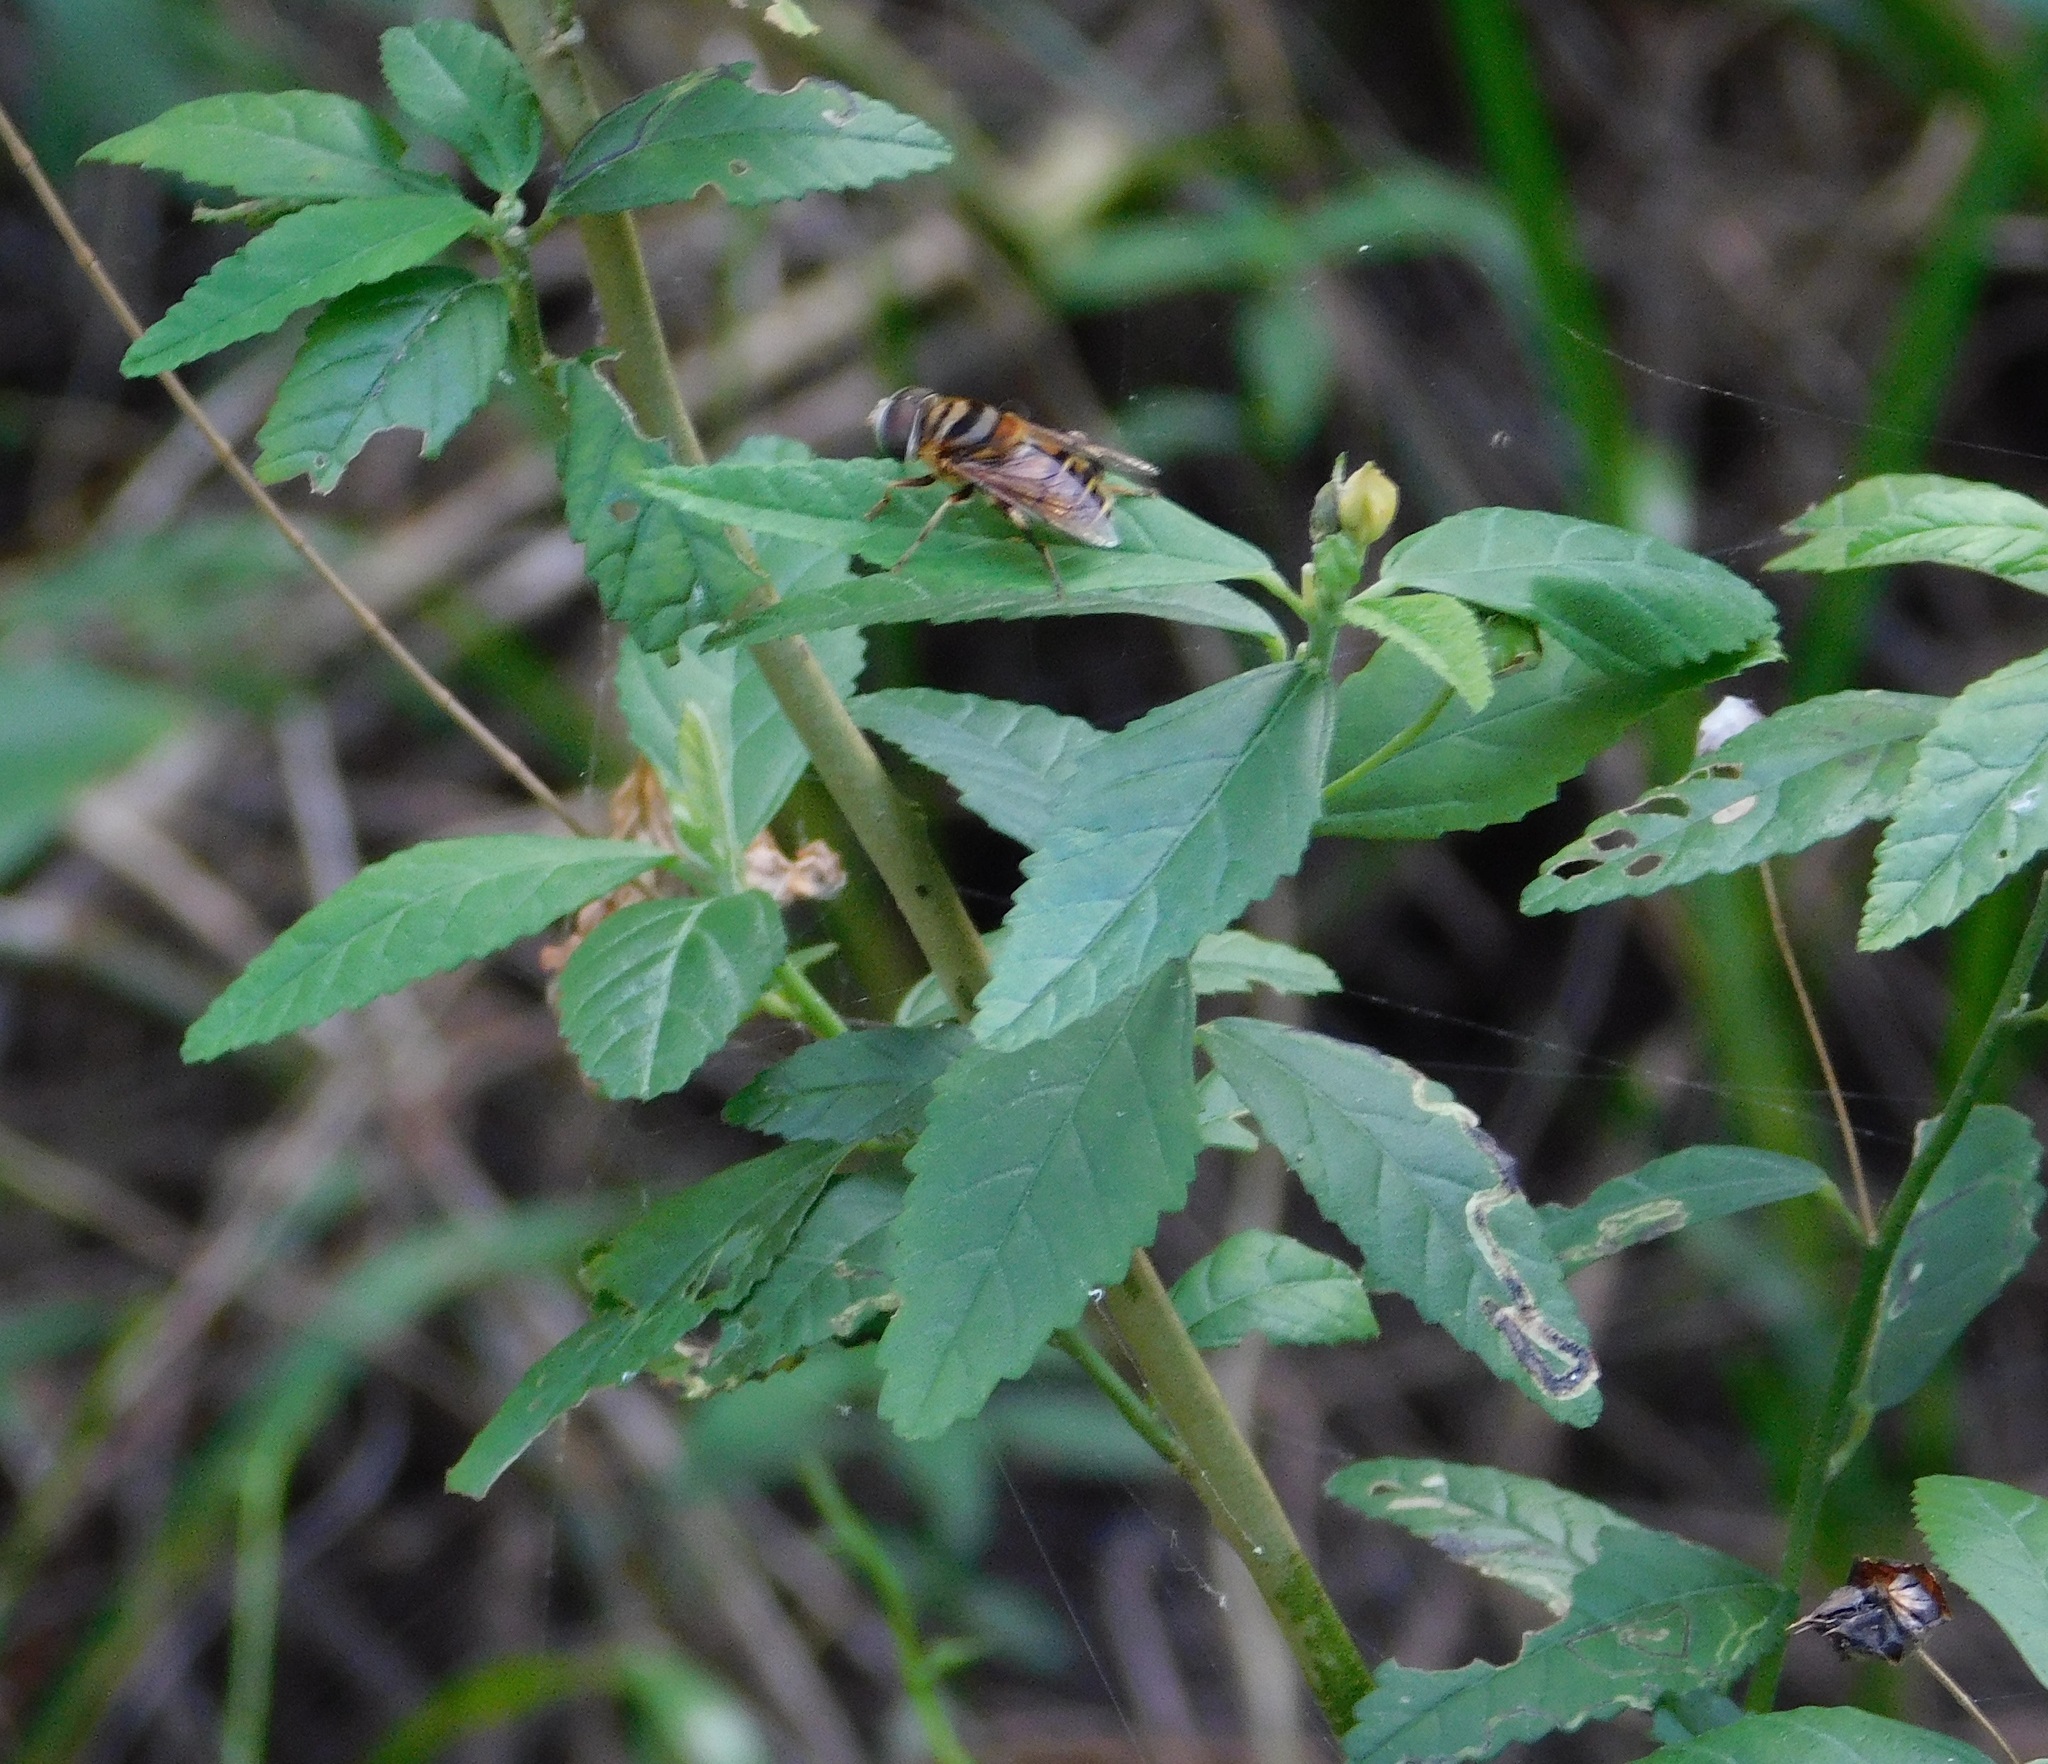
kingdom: Animalia
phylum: Arthropoda
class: Insecta
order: Diptera
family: Syrphidae
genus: Palpada
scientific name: Palpada vinetorum
